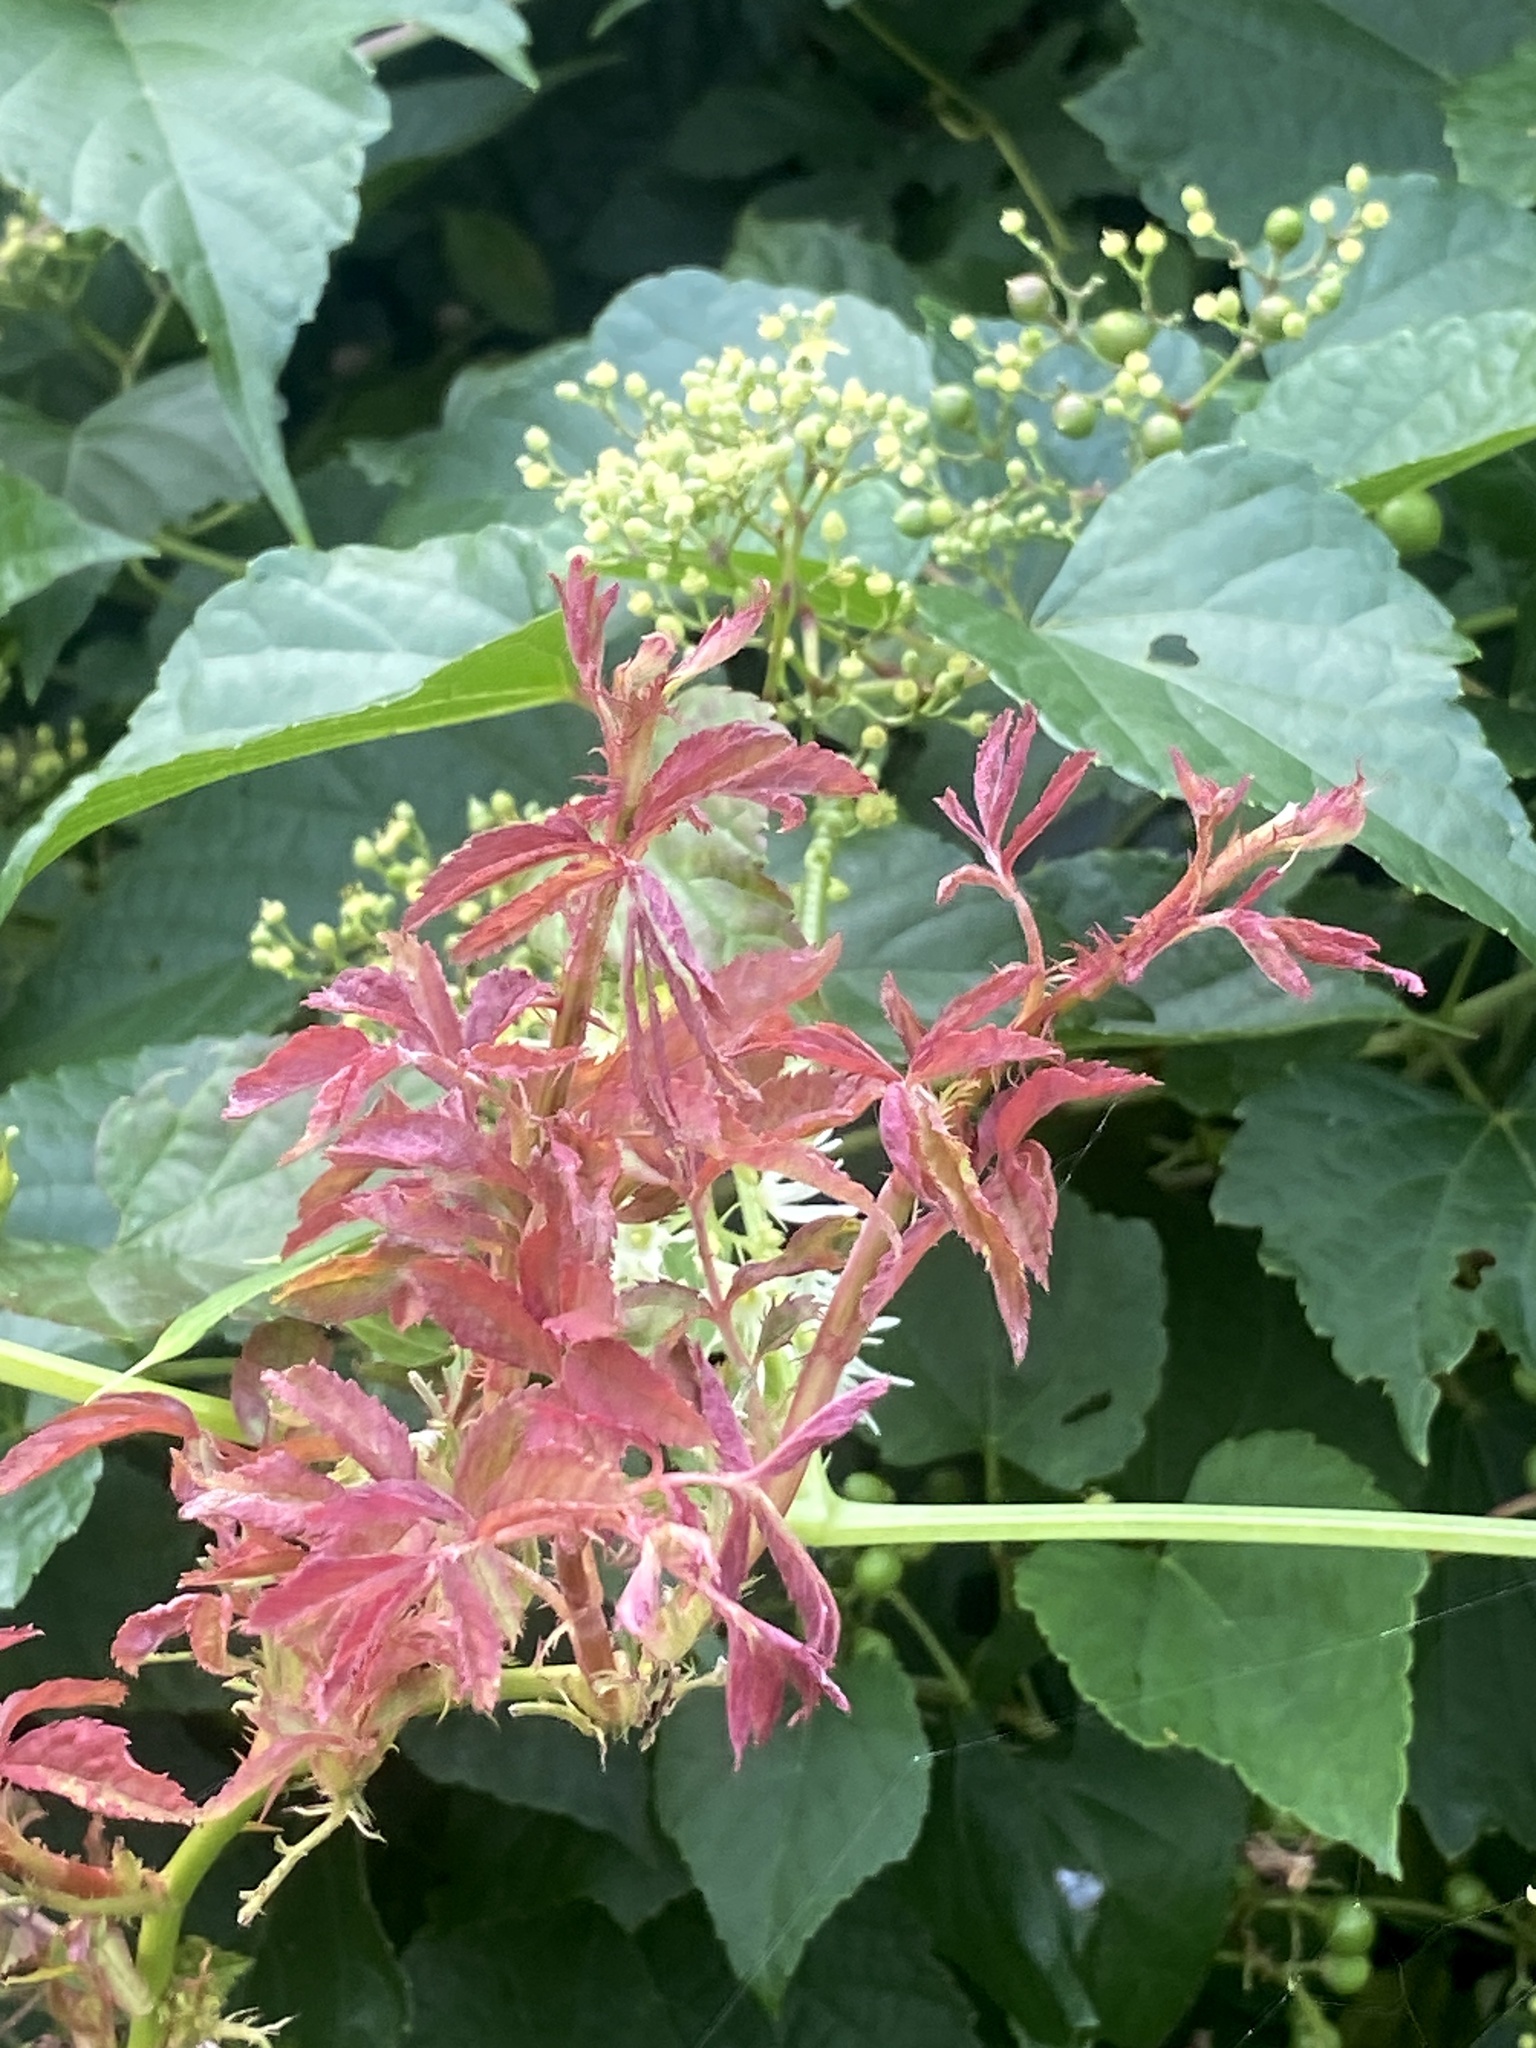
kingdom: Viruses
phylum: Negarnaviricota
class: Ellioviricetes
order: Bunyavirales
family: Fimoviridae
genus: Emaravirus
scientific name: Emaravirus rosae
